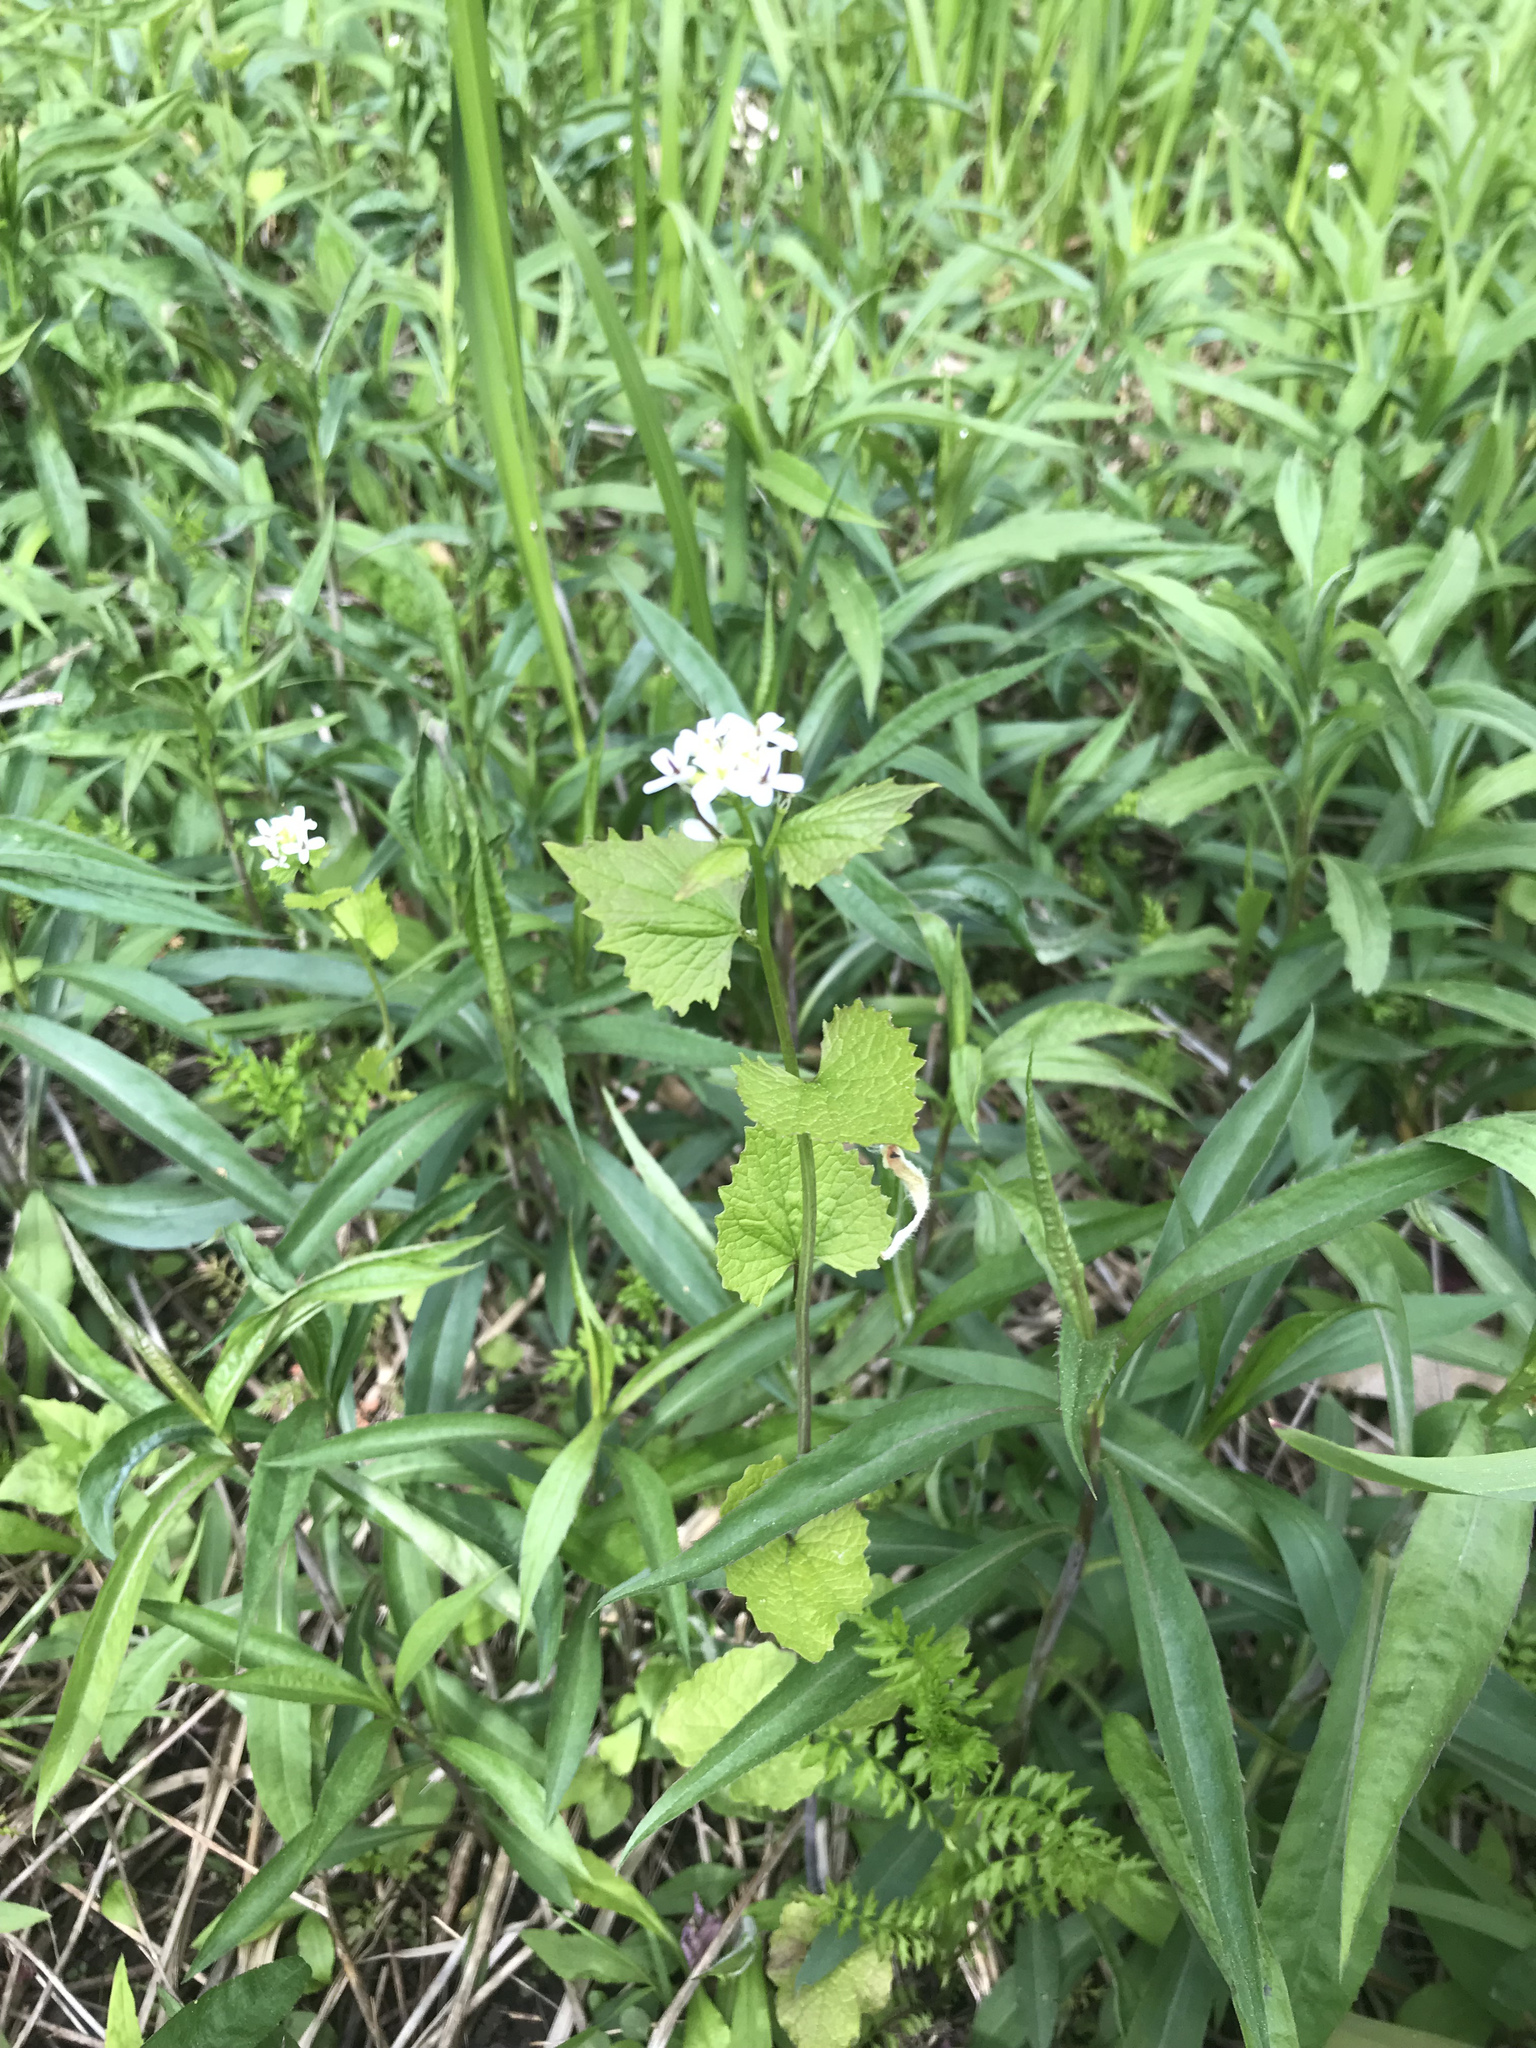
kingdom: Plantae
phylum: Tracheophyta
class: Magnoliopsida
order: Brassicales
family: Brassicaceae
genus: Alliaria
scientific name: Alliaria petiolata
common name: Garlic mustard
